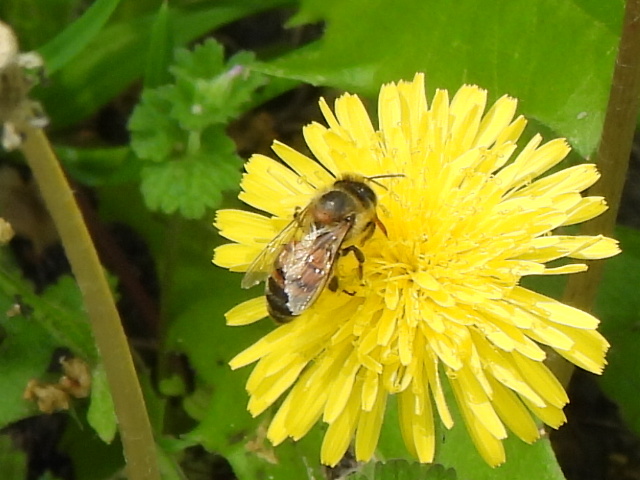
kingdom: Animalia
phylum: Arthropoda
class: Insecta
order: Hymenoptera
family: Apidae
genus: Apis
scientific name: Apis mellifera
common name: Honey bee
